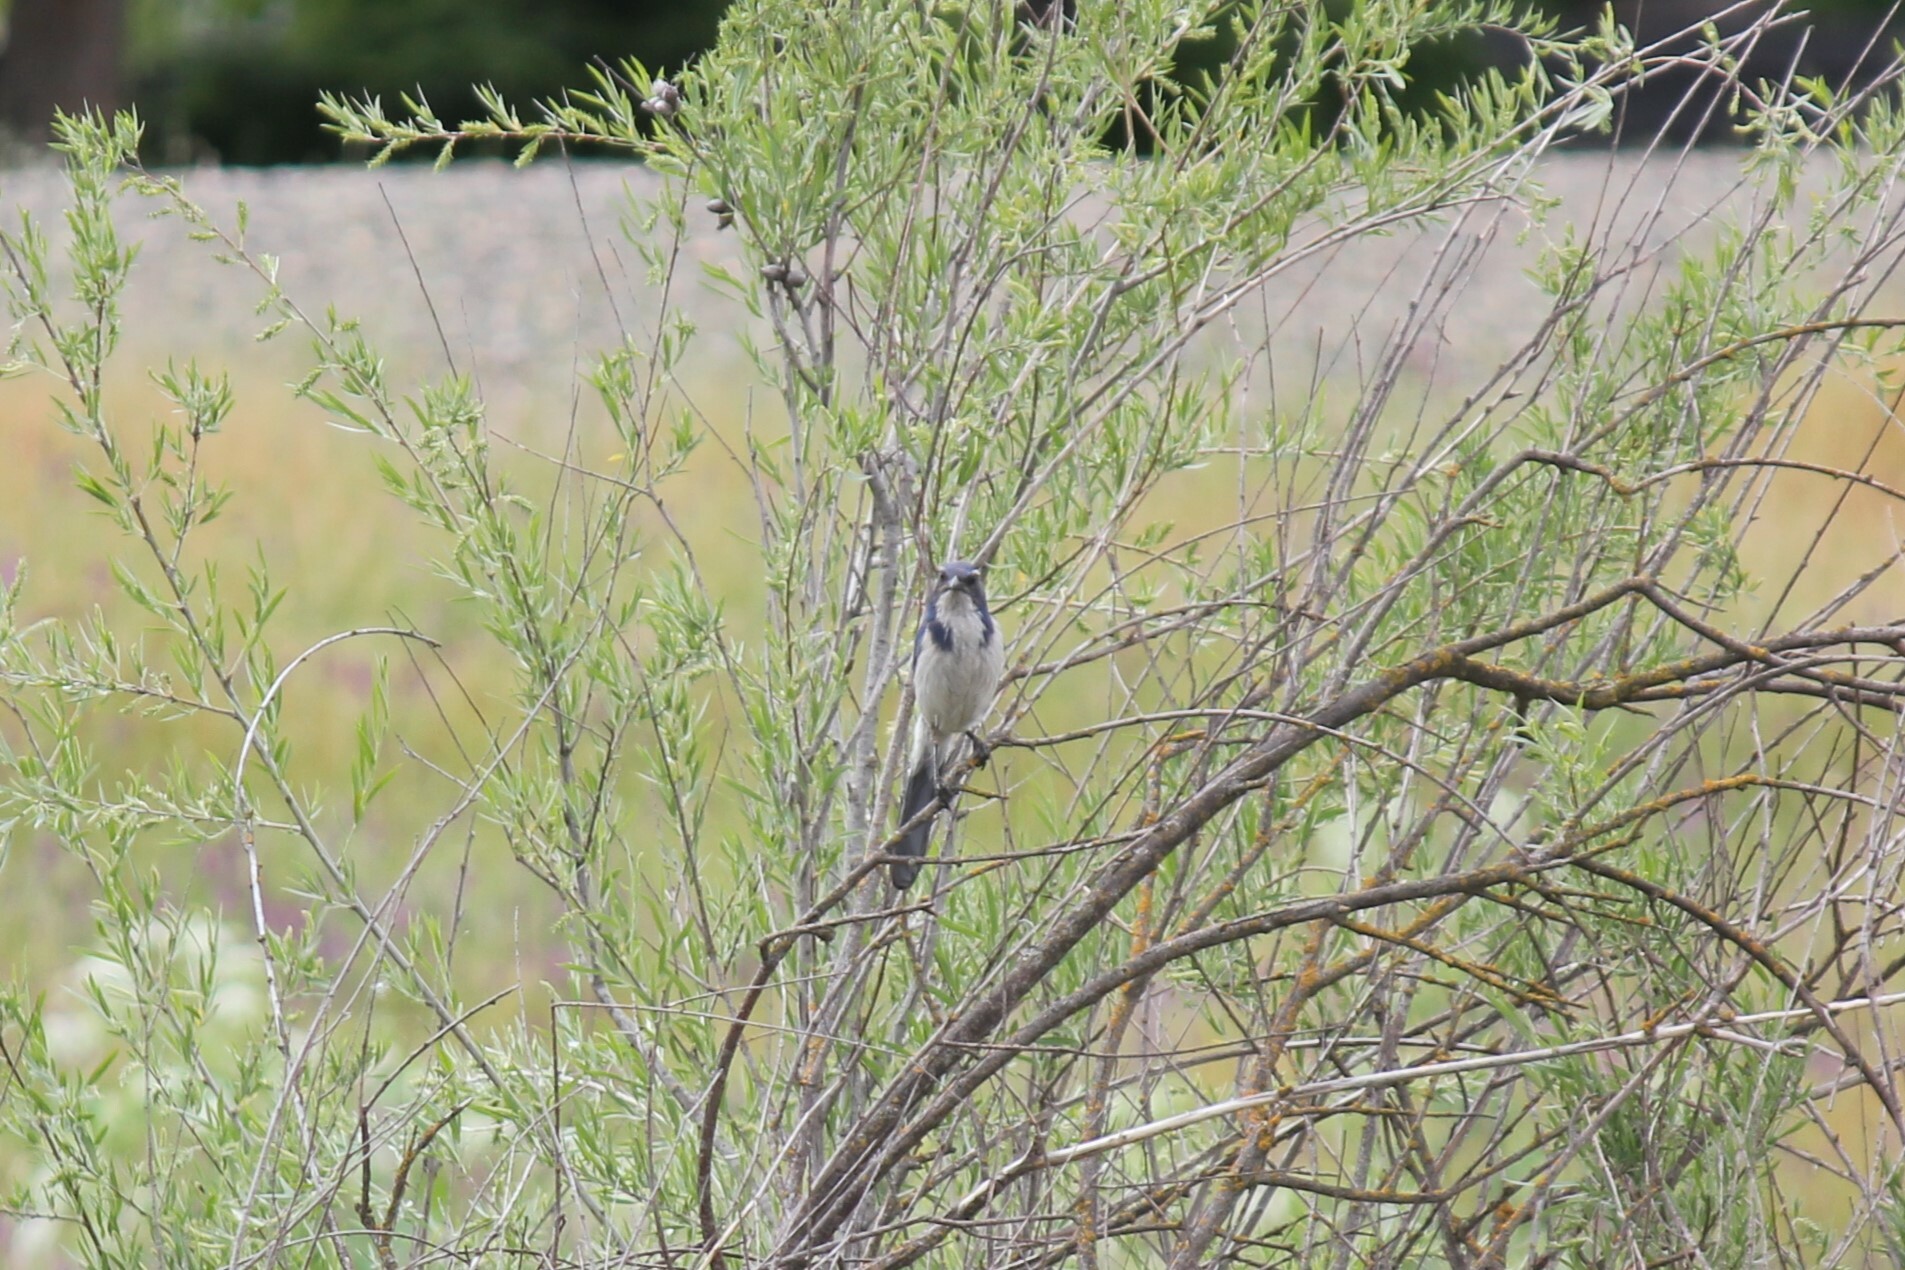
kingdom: Animalia
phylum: Chordata
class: Aves
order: Passeriformes
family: Corvidae
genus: Aphelocoma
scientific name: Aphelocoma californica
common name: California scrub-jay
